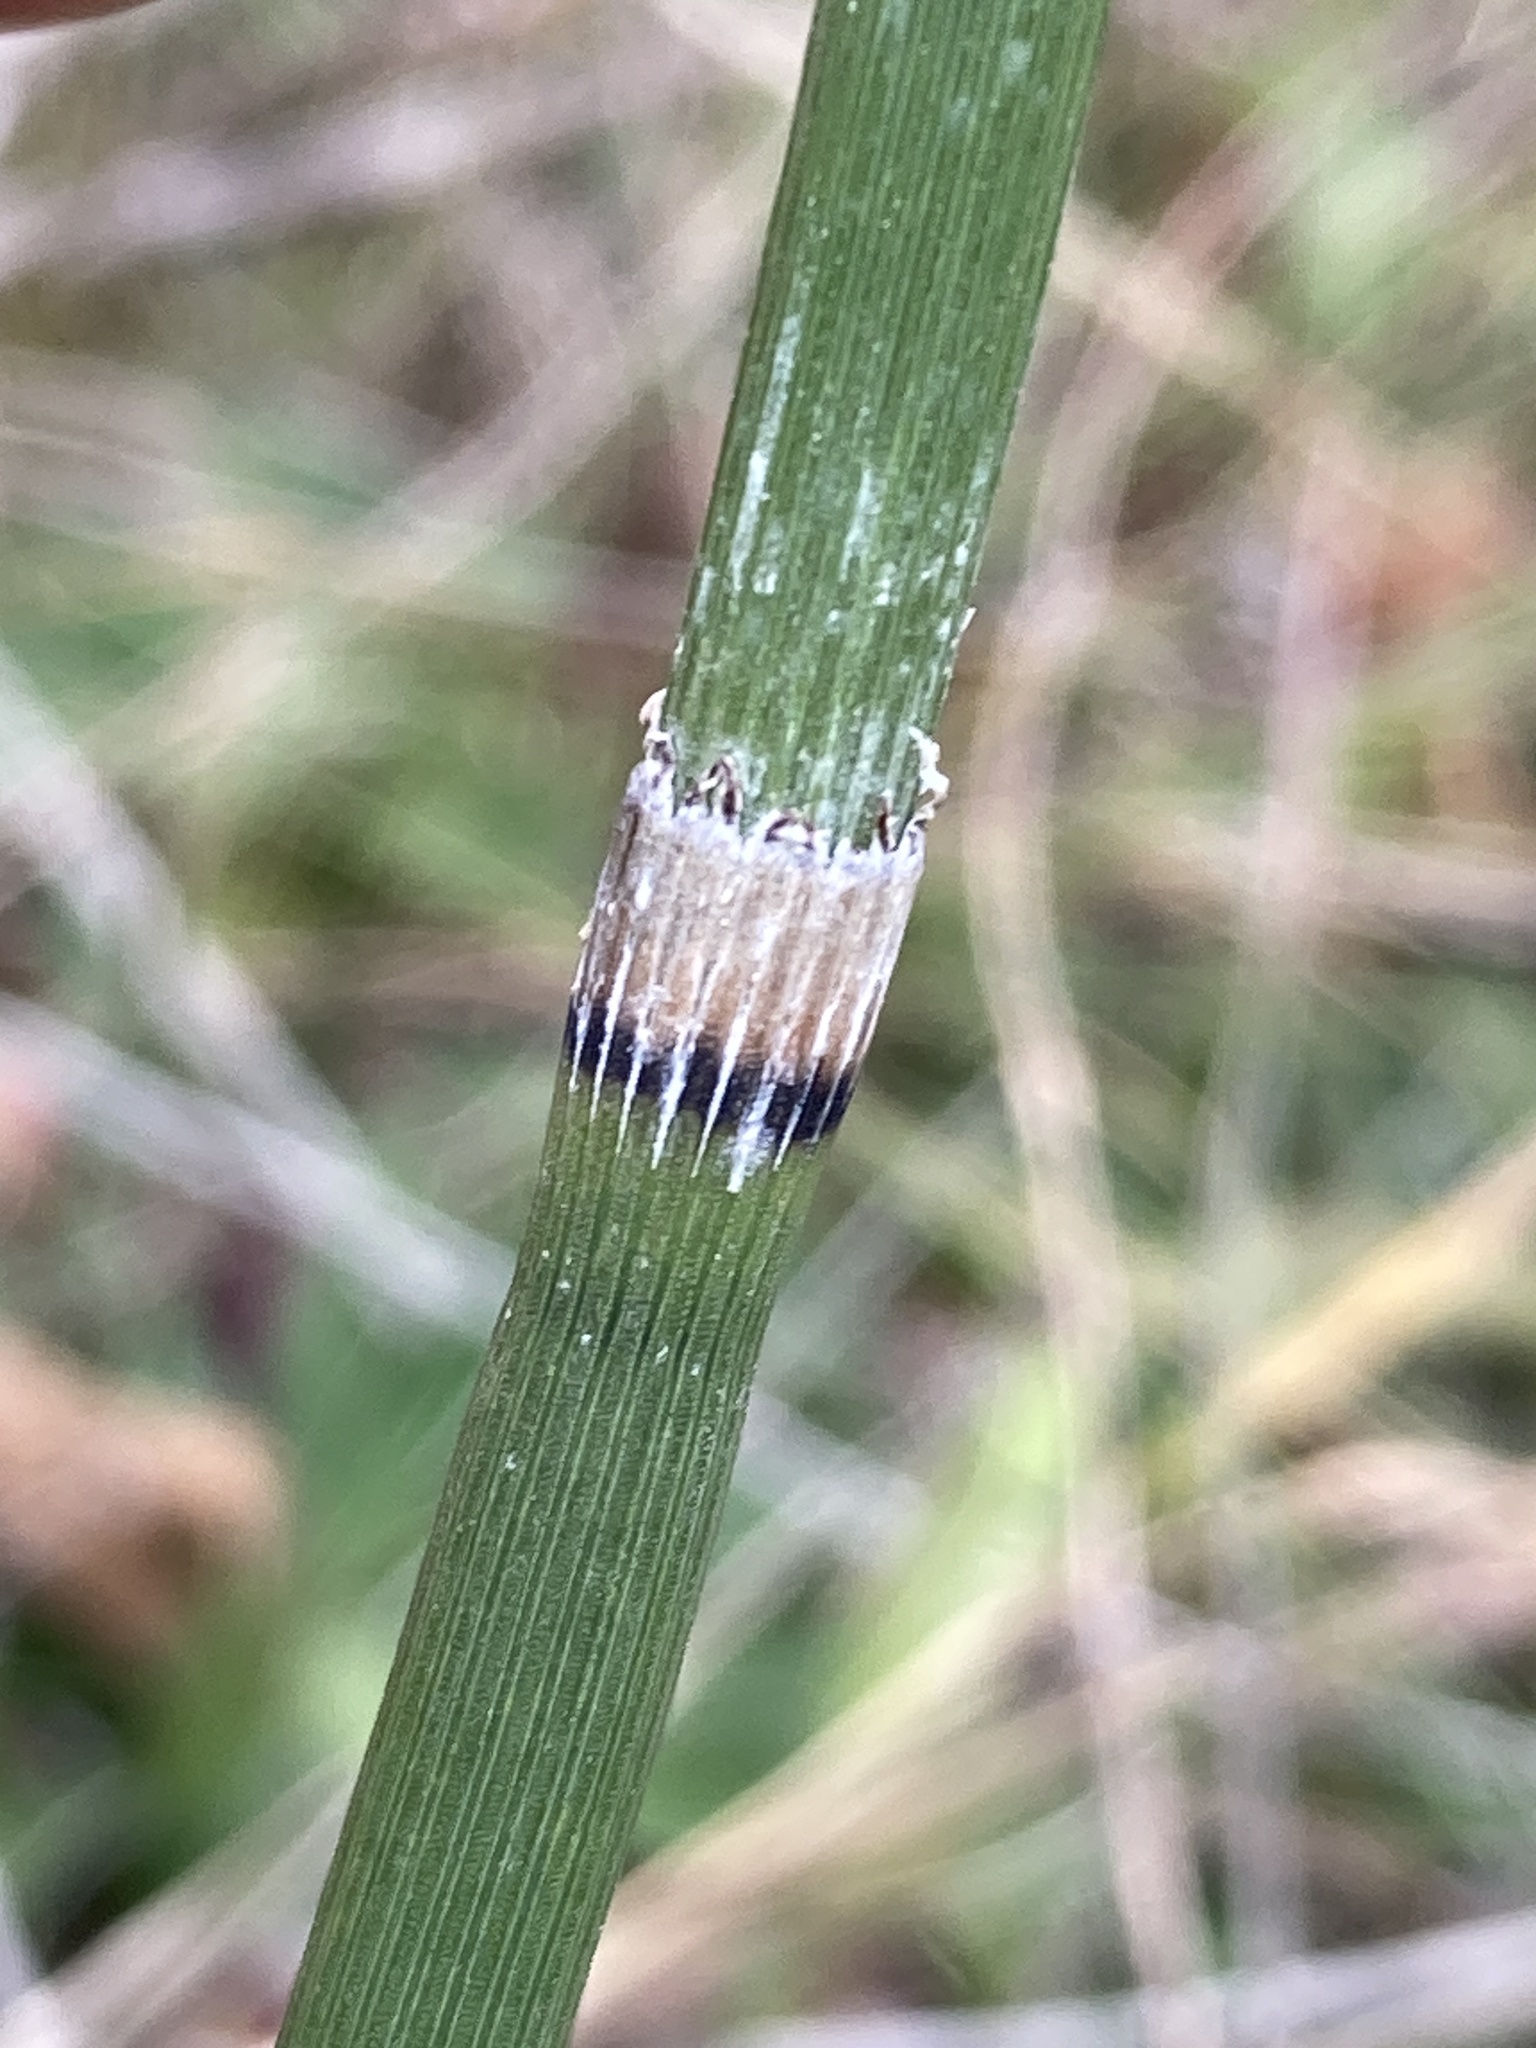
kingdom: Plantae
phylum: Tracheophyta
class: Polypodiopsida
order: Equisetales
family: Equisetaceae
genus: Equisetum
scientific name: Equisetum hyemale
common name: Rough horsetail
